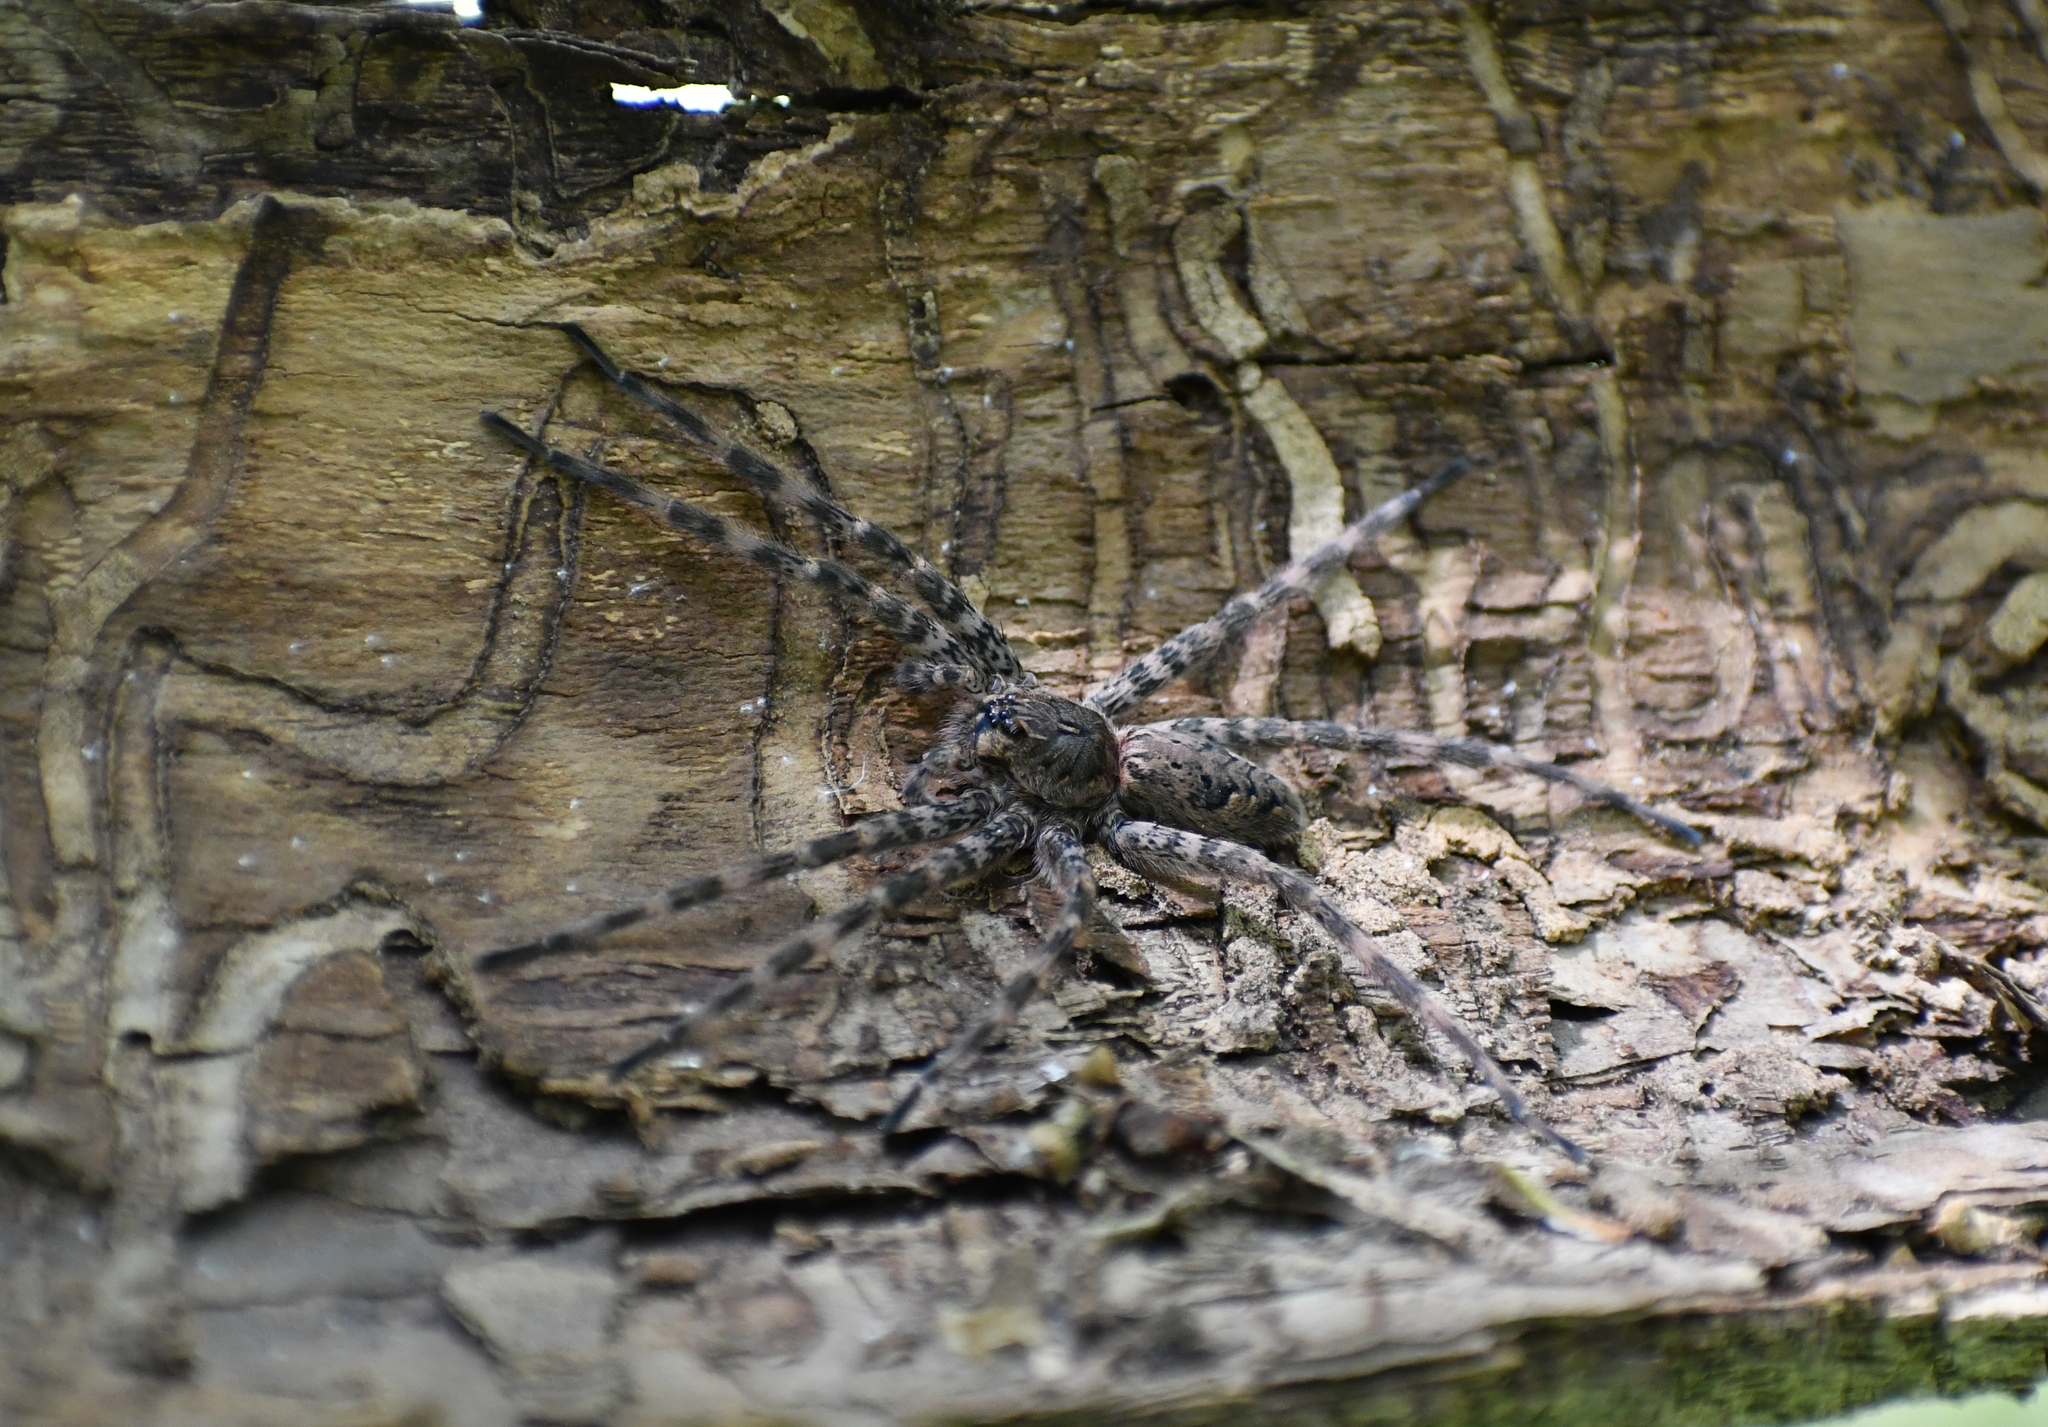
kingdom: Animalia
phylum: Arthropoda
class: Arachnida
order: Araneae
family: Pisauridae
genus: Dolomedes
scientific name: Dolomedes tenebrosus
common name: Dark fishing spider
